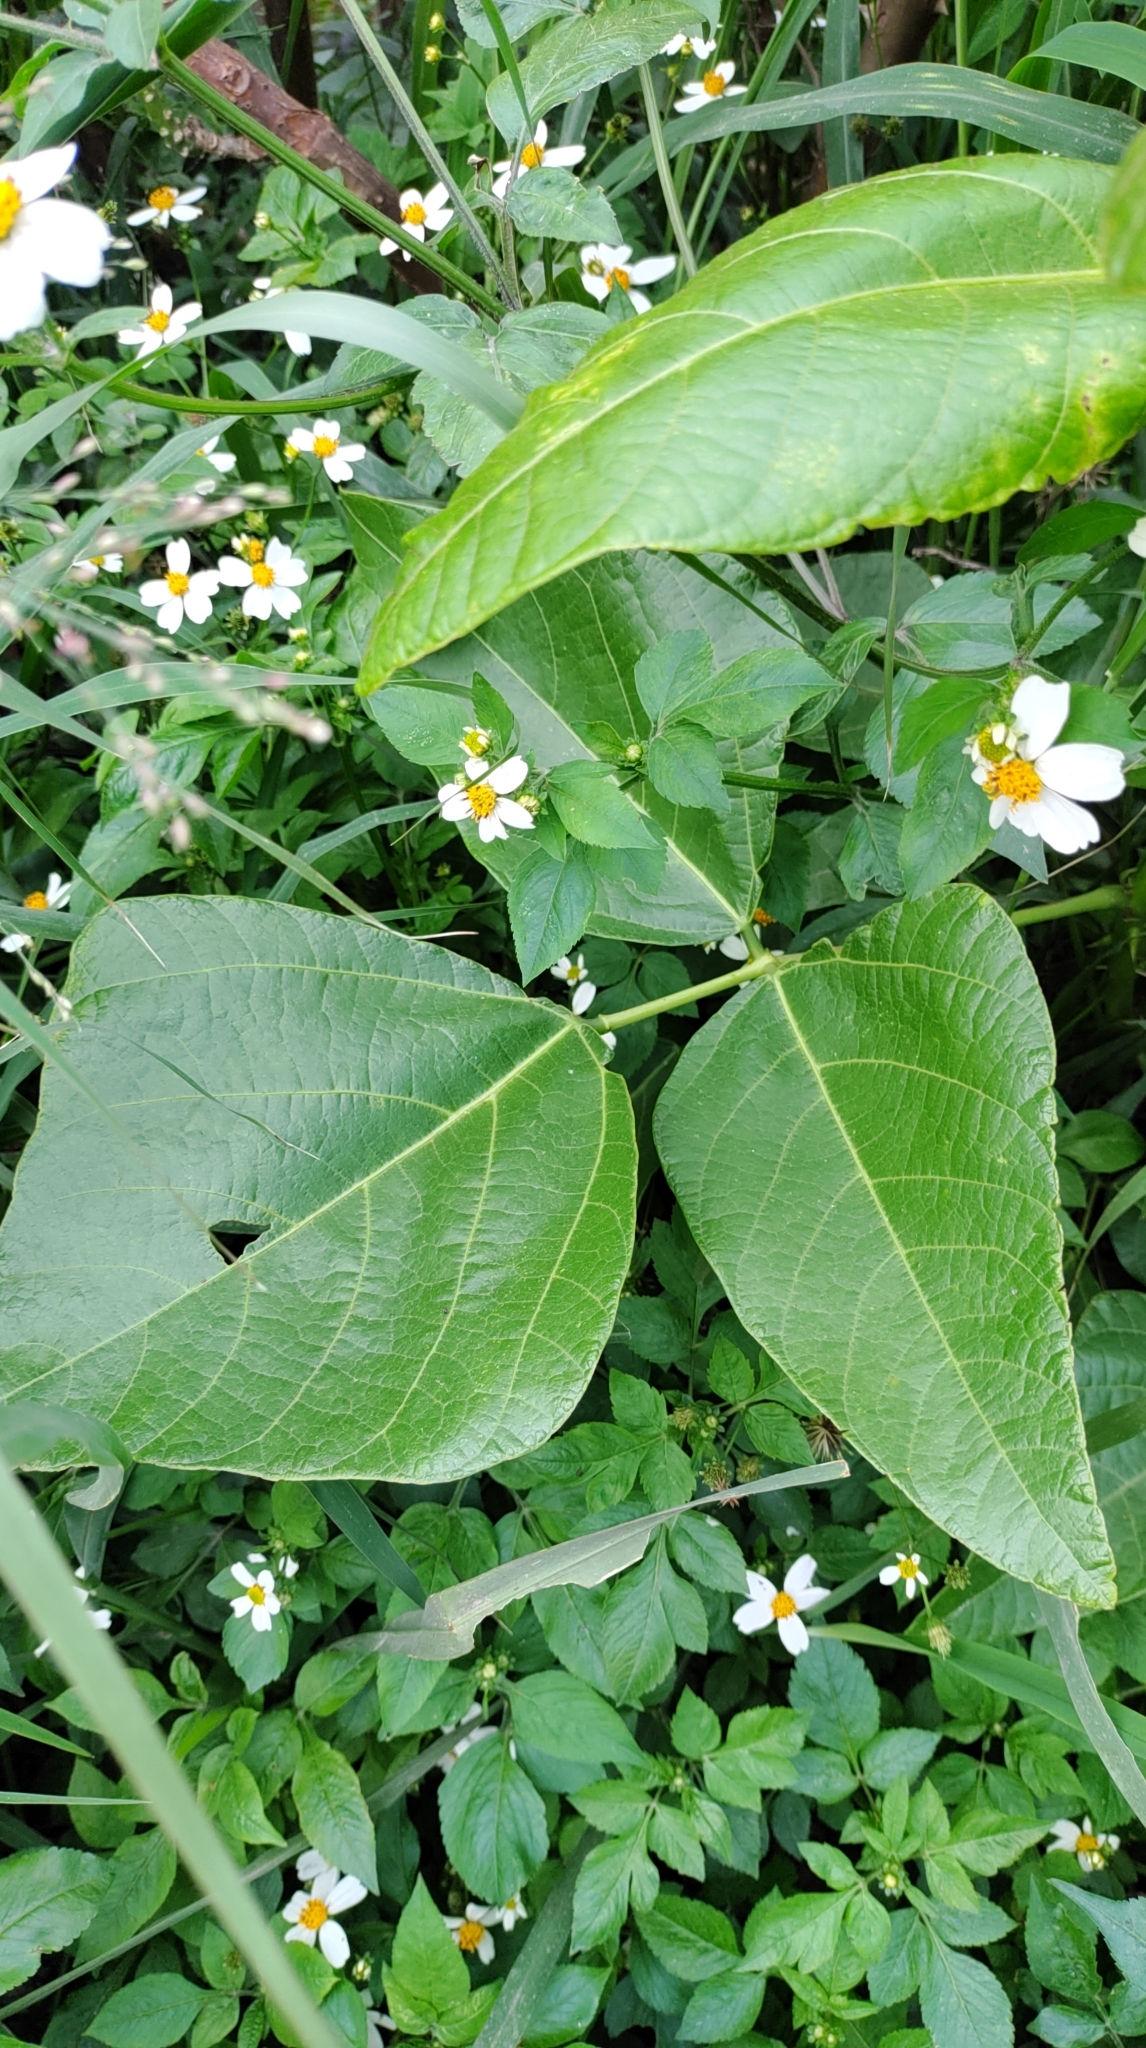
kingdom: Plantae
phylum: Tracheophyta
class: Magnoliopsida
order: Fabales
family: Fabaceae
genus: Pueraria
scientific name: Pueraria montana
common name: Kudzu
